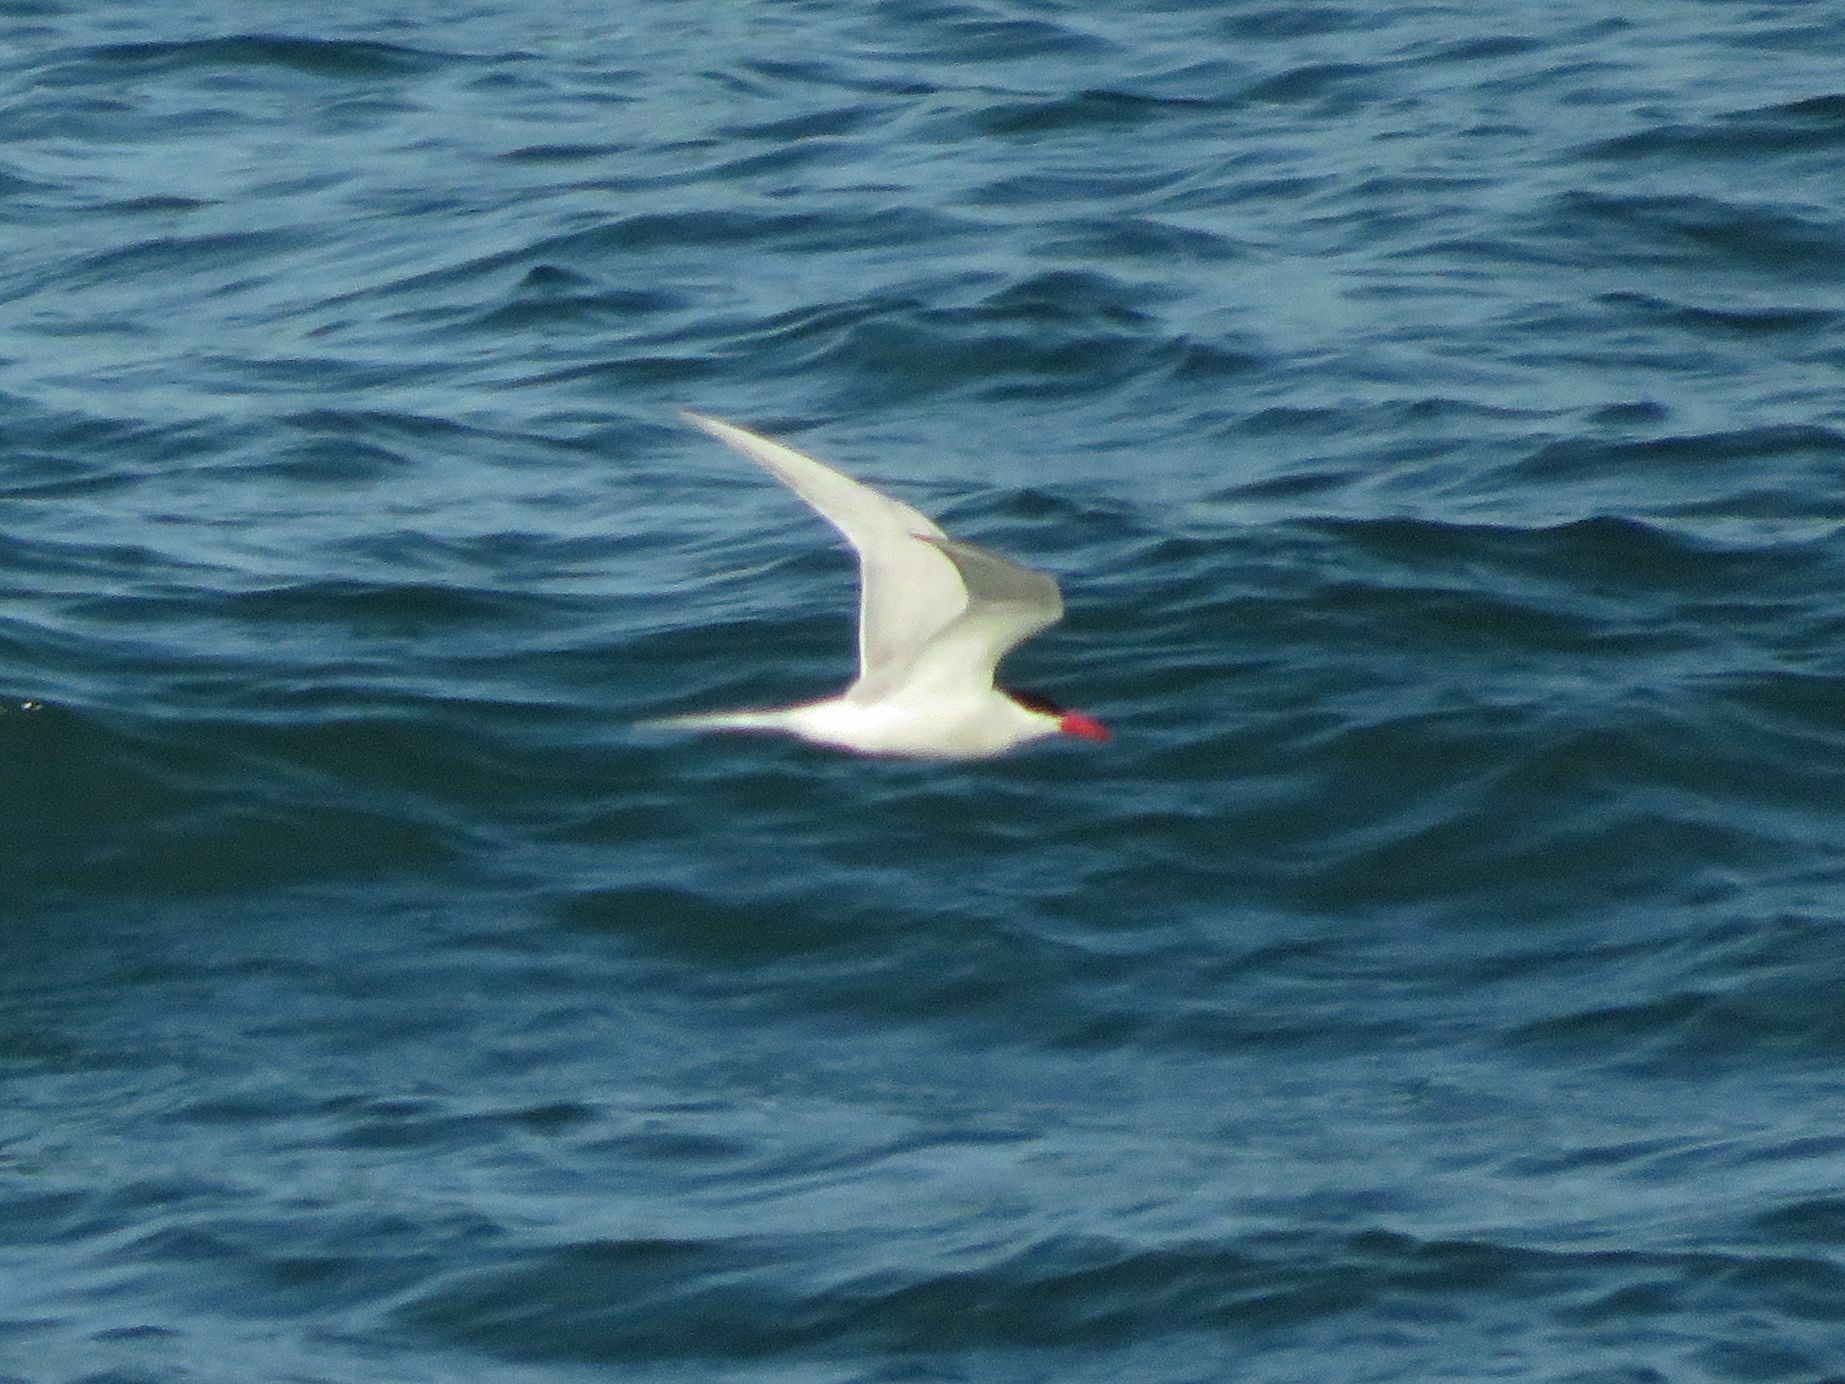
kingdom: Animalia
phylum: Chordata
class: Aves
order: Charadriiformes
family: Laridae
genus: Sterna
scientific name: Sterna hirundinacea
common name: South american tern
